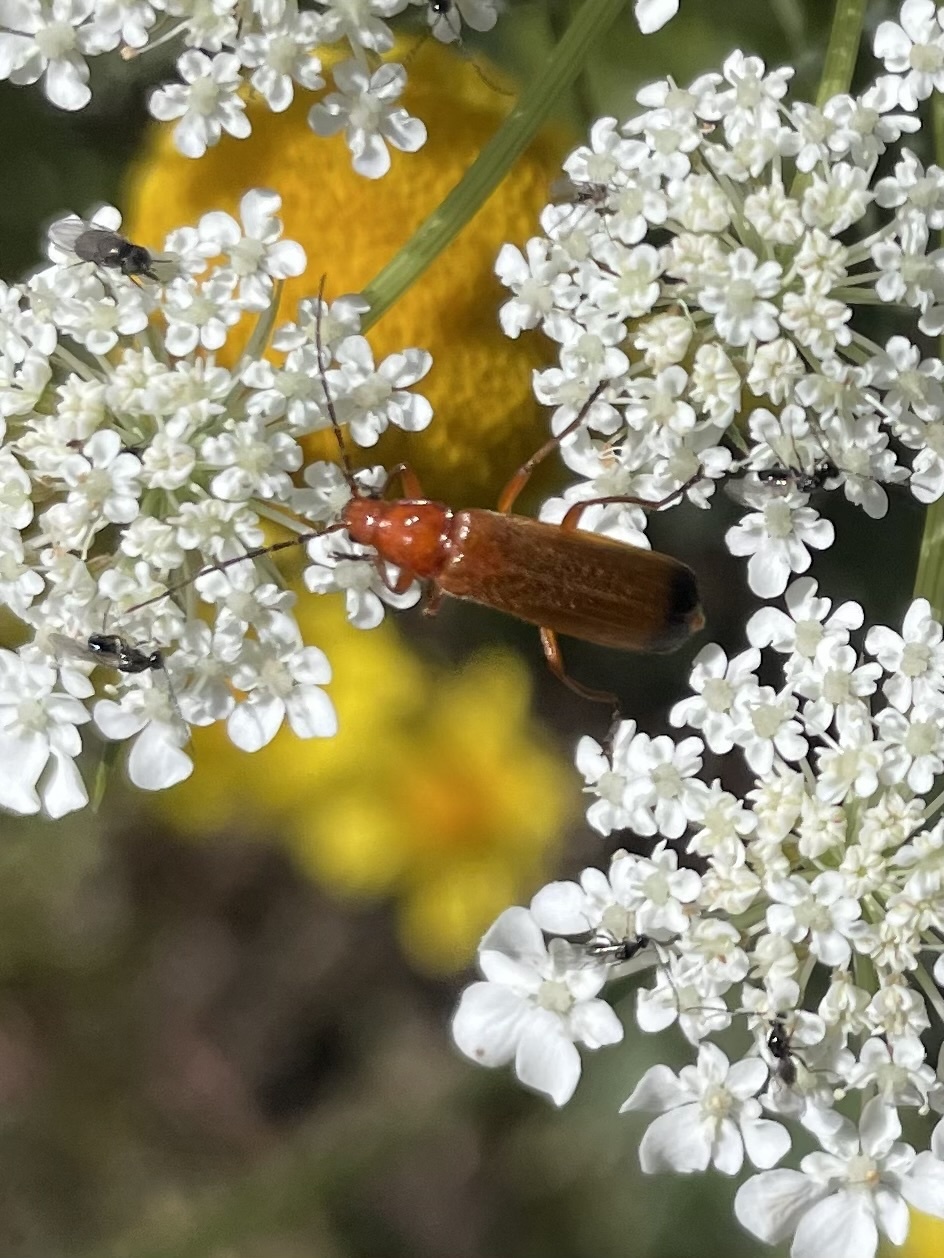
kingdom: Animalia
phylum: Arthropoda
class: Insecta
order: Coleoptera
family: Cantharidae
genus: Rhagonycha
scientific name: Rhagonycha fulva
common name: Common red soldier beetle
